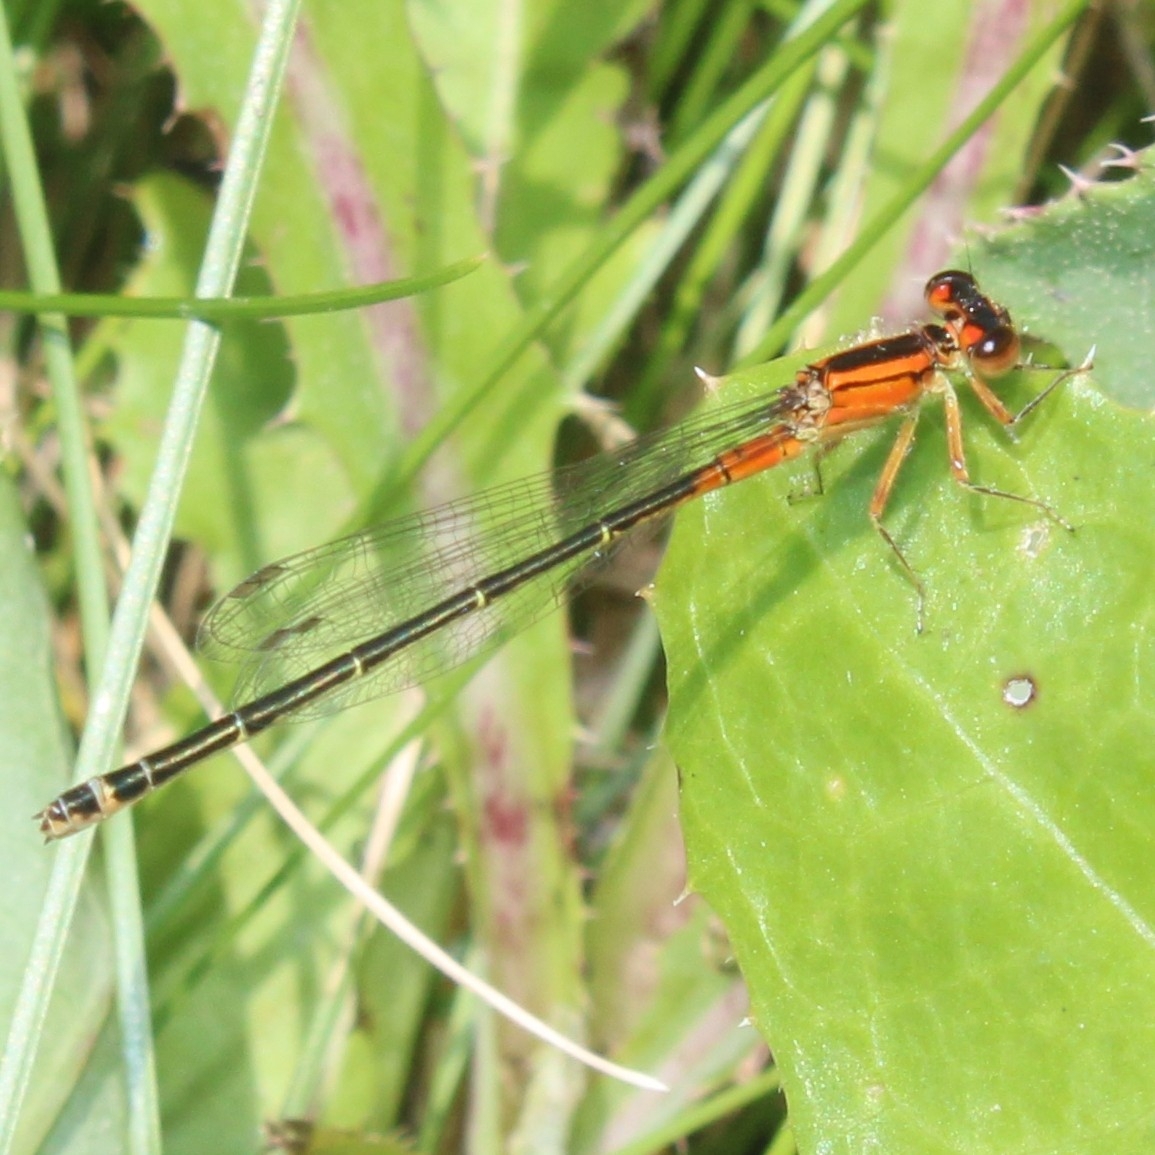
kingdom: Animalia
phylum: Arthropoda
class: Insecta
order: Odonata
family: Coenagrionidae
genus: Ischnura
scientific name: Ischnura verticalis
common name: Eastern forktail
